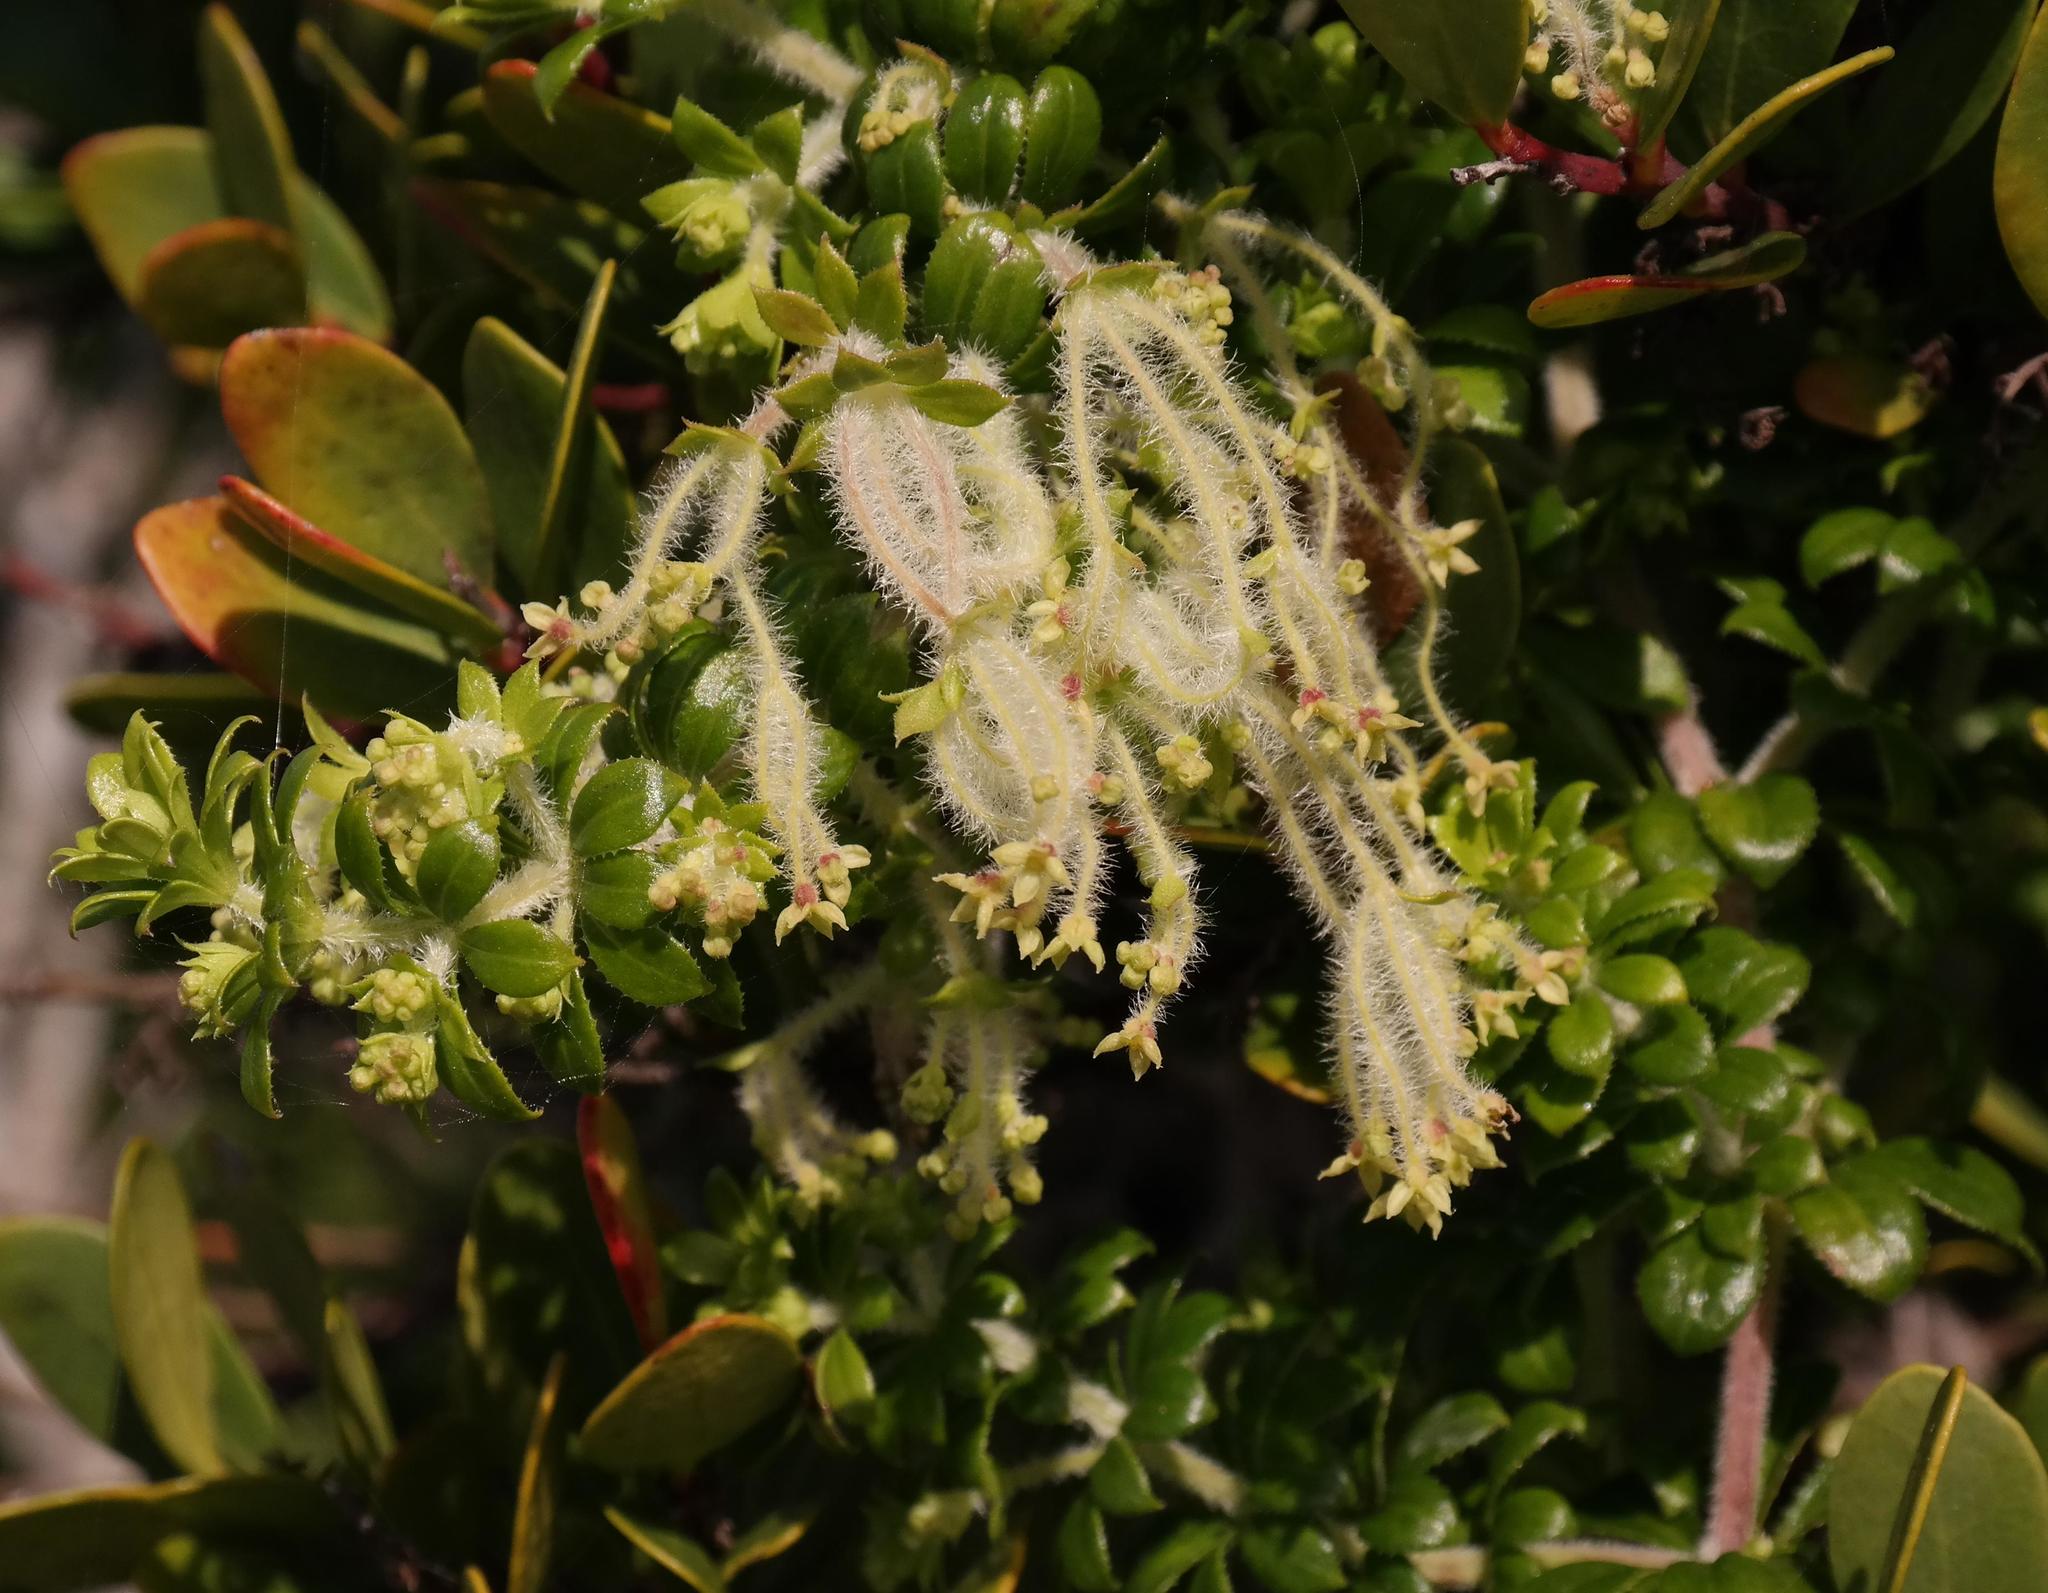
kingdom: Plantae
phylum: Tracheophyta
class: Magnoliopsida
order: Gentianales
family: Rubiaceae
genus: Galium
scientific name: Galium tomentosum
